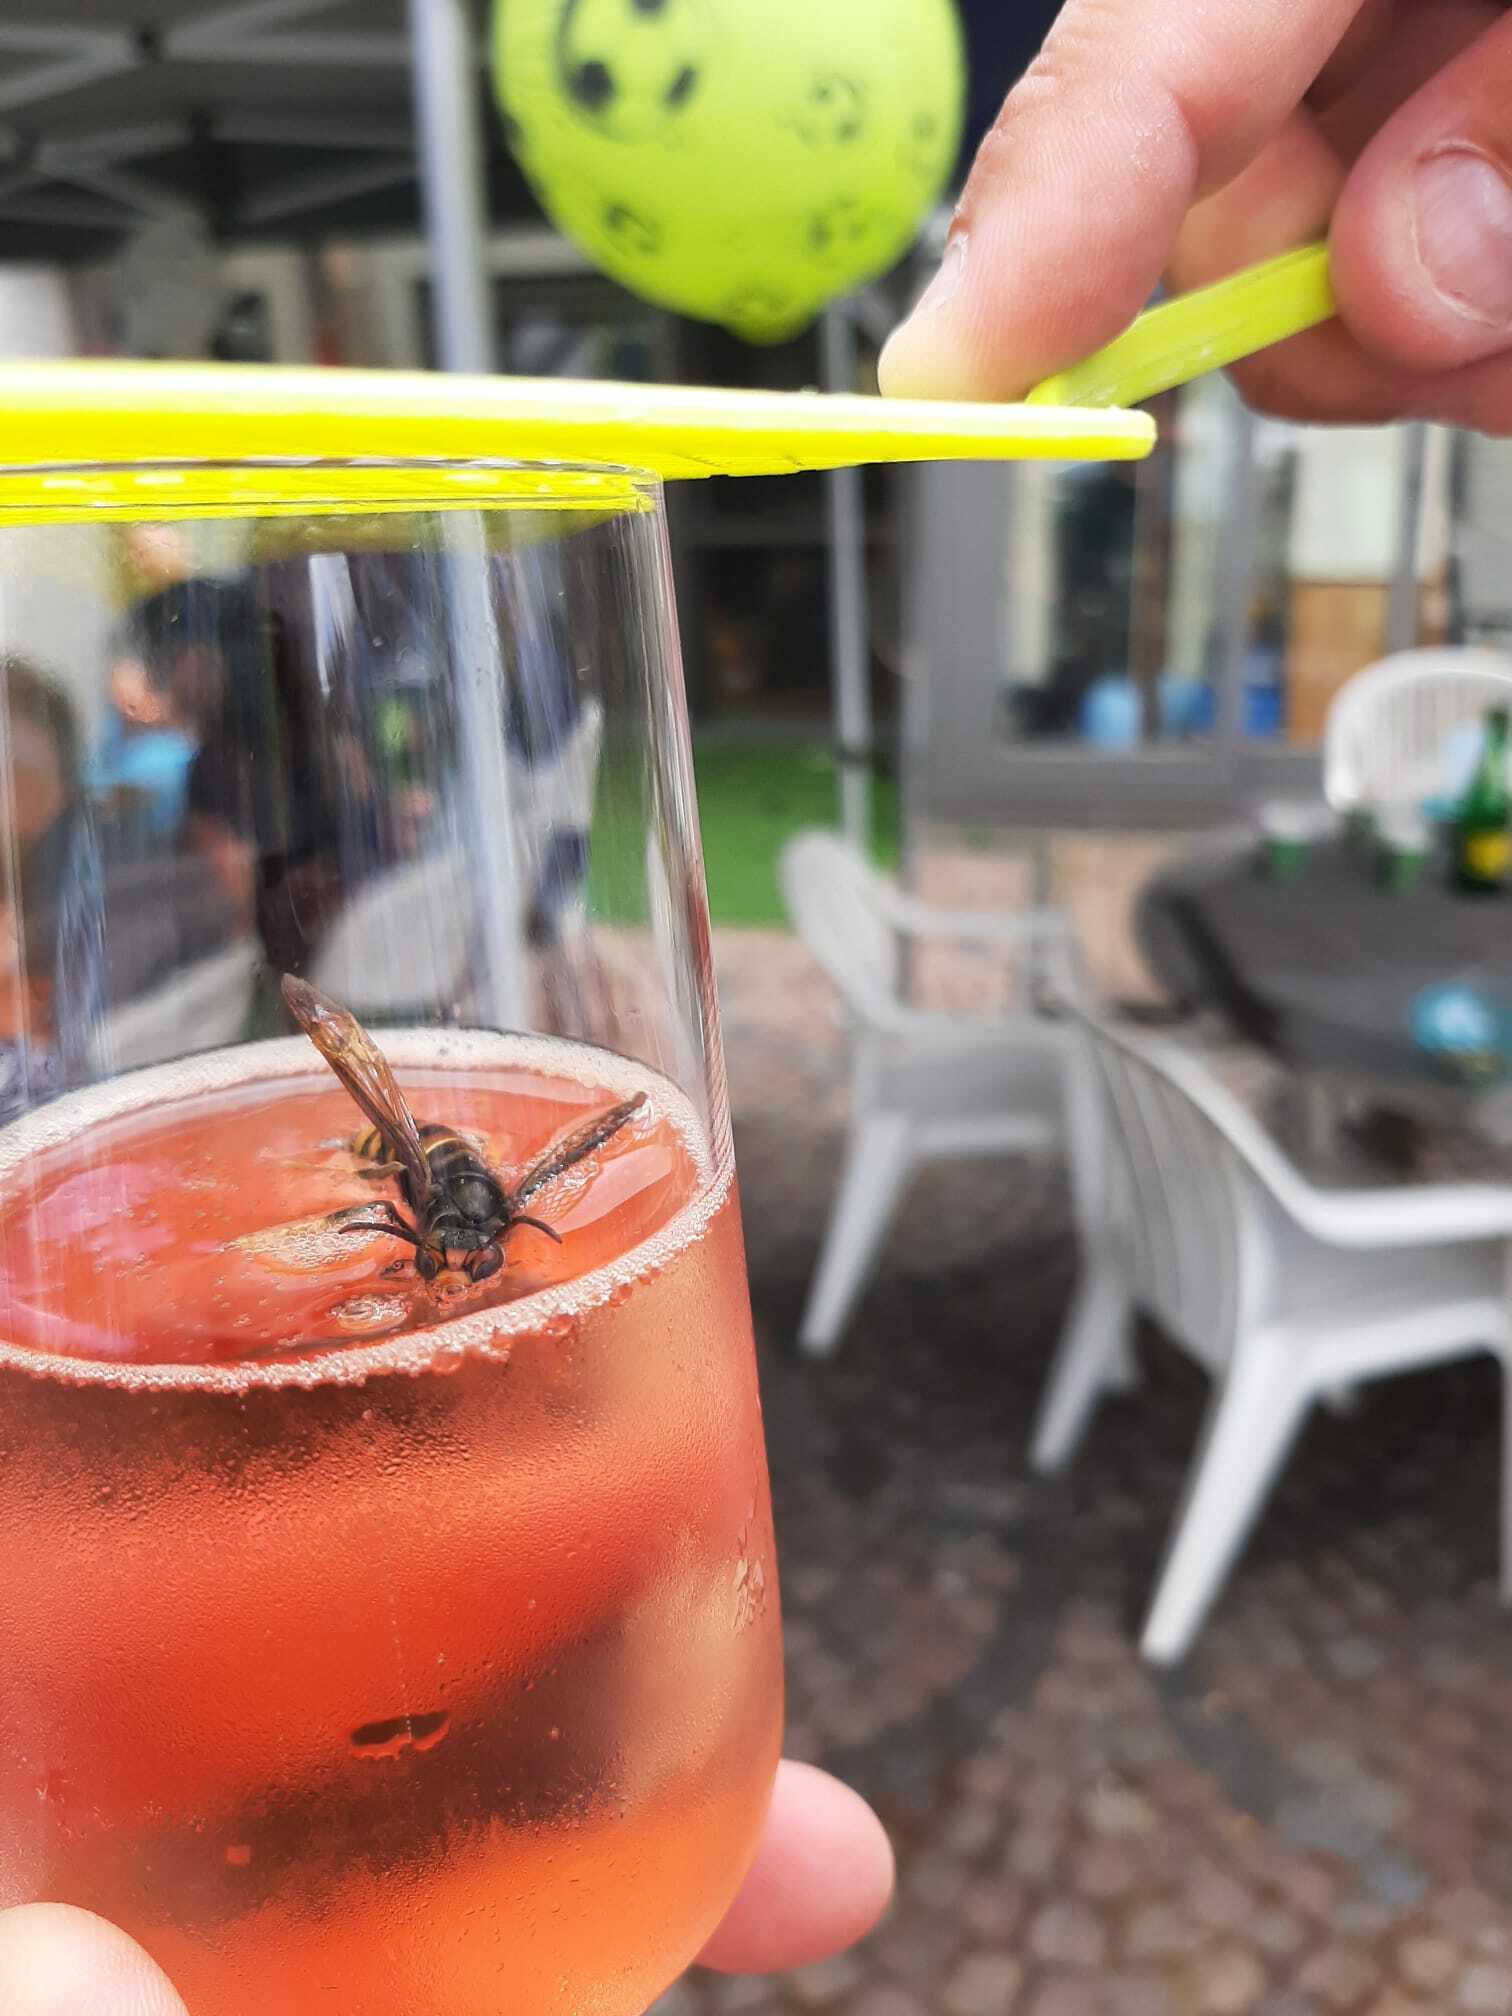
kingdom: Animalia
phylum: Arthropoda
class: Insecta
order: Hymenoptera
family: Vespidae
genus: Vespa
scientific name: Vespa velutina
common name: Asian hornet
